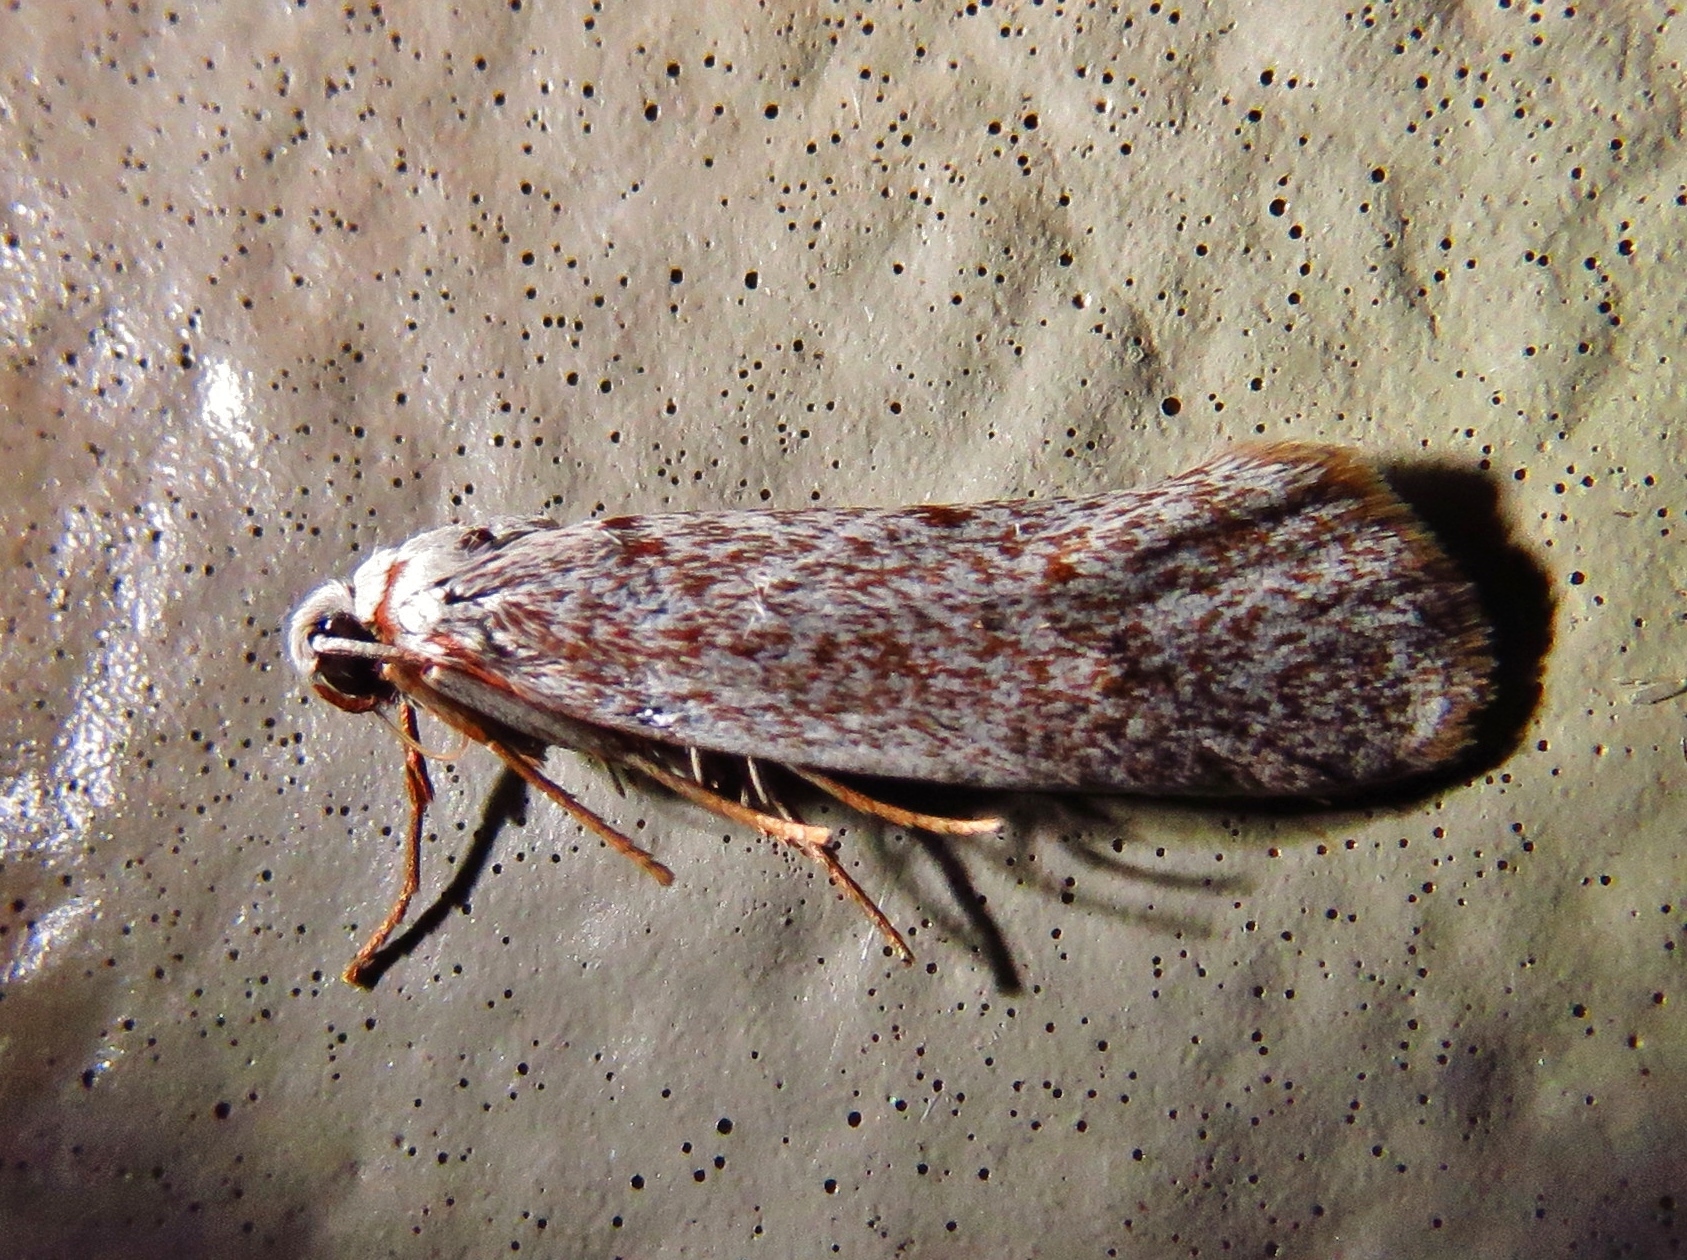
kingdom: Animalia
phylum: Arthropoda
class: Insecta
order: Lepidoptera
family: Lacturidae
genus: Lactura
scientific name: Lactura
